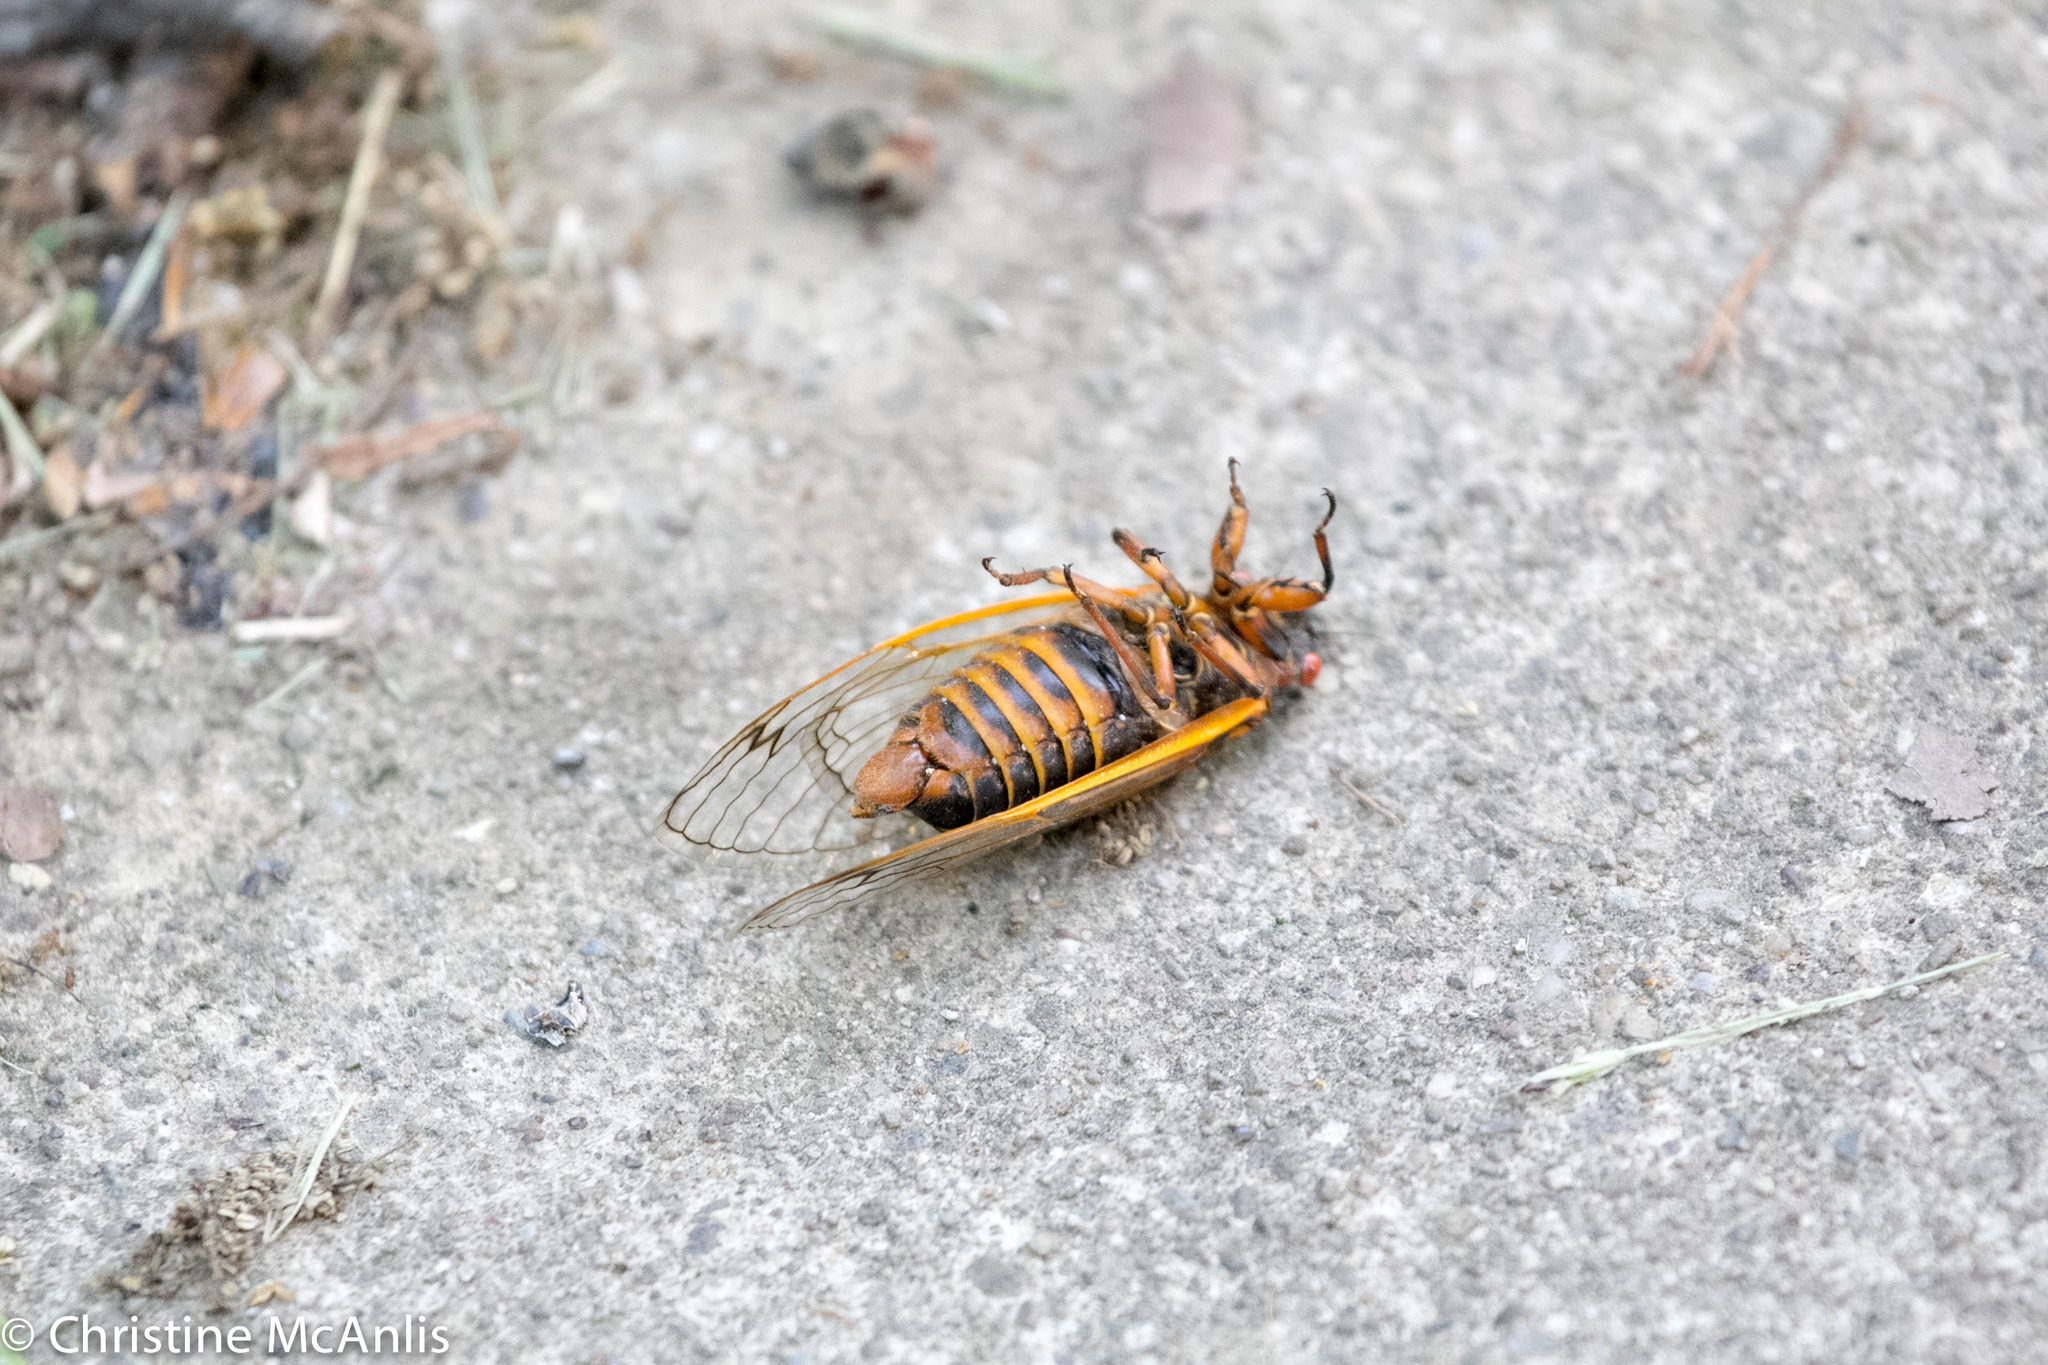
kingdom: Animalia
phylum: Arthropoda
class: Insecta
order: Hemiptera
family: Cicadidae
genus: Magicicada
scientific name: Magicicada septendecim
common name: Periodical cicada
